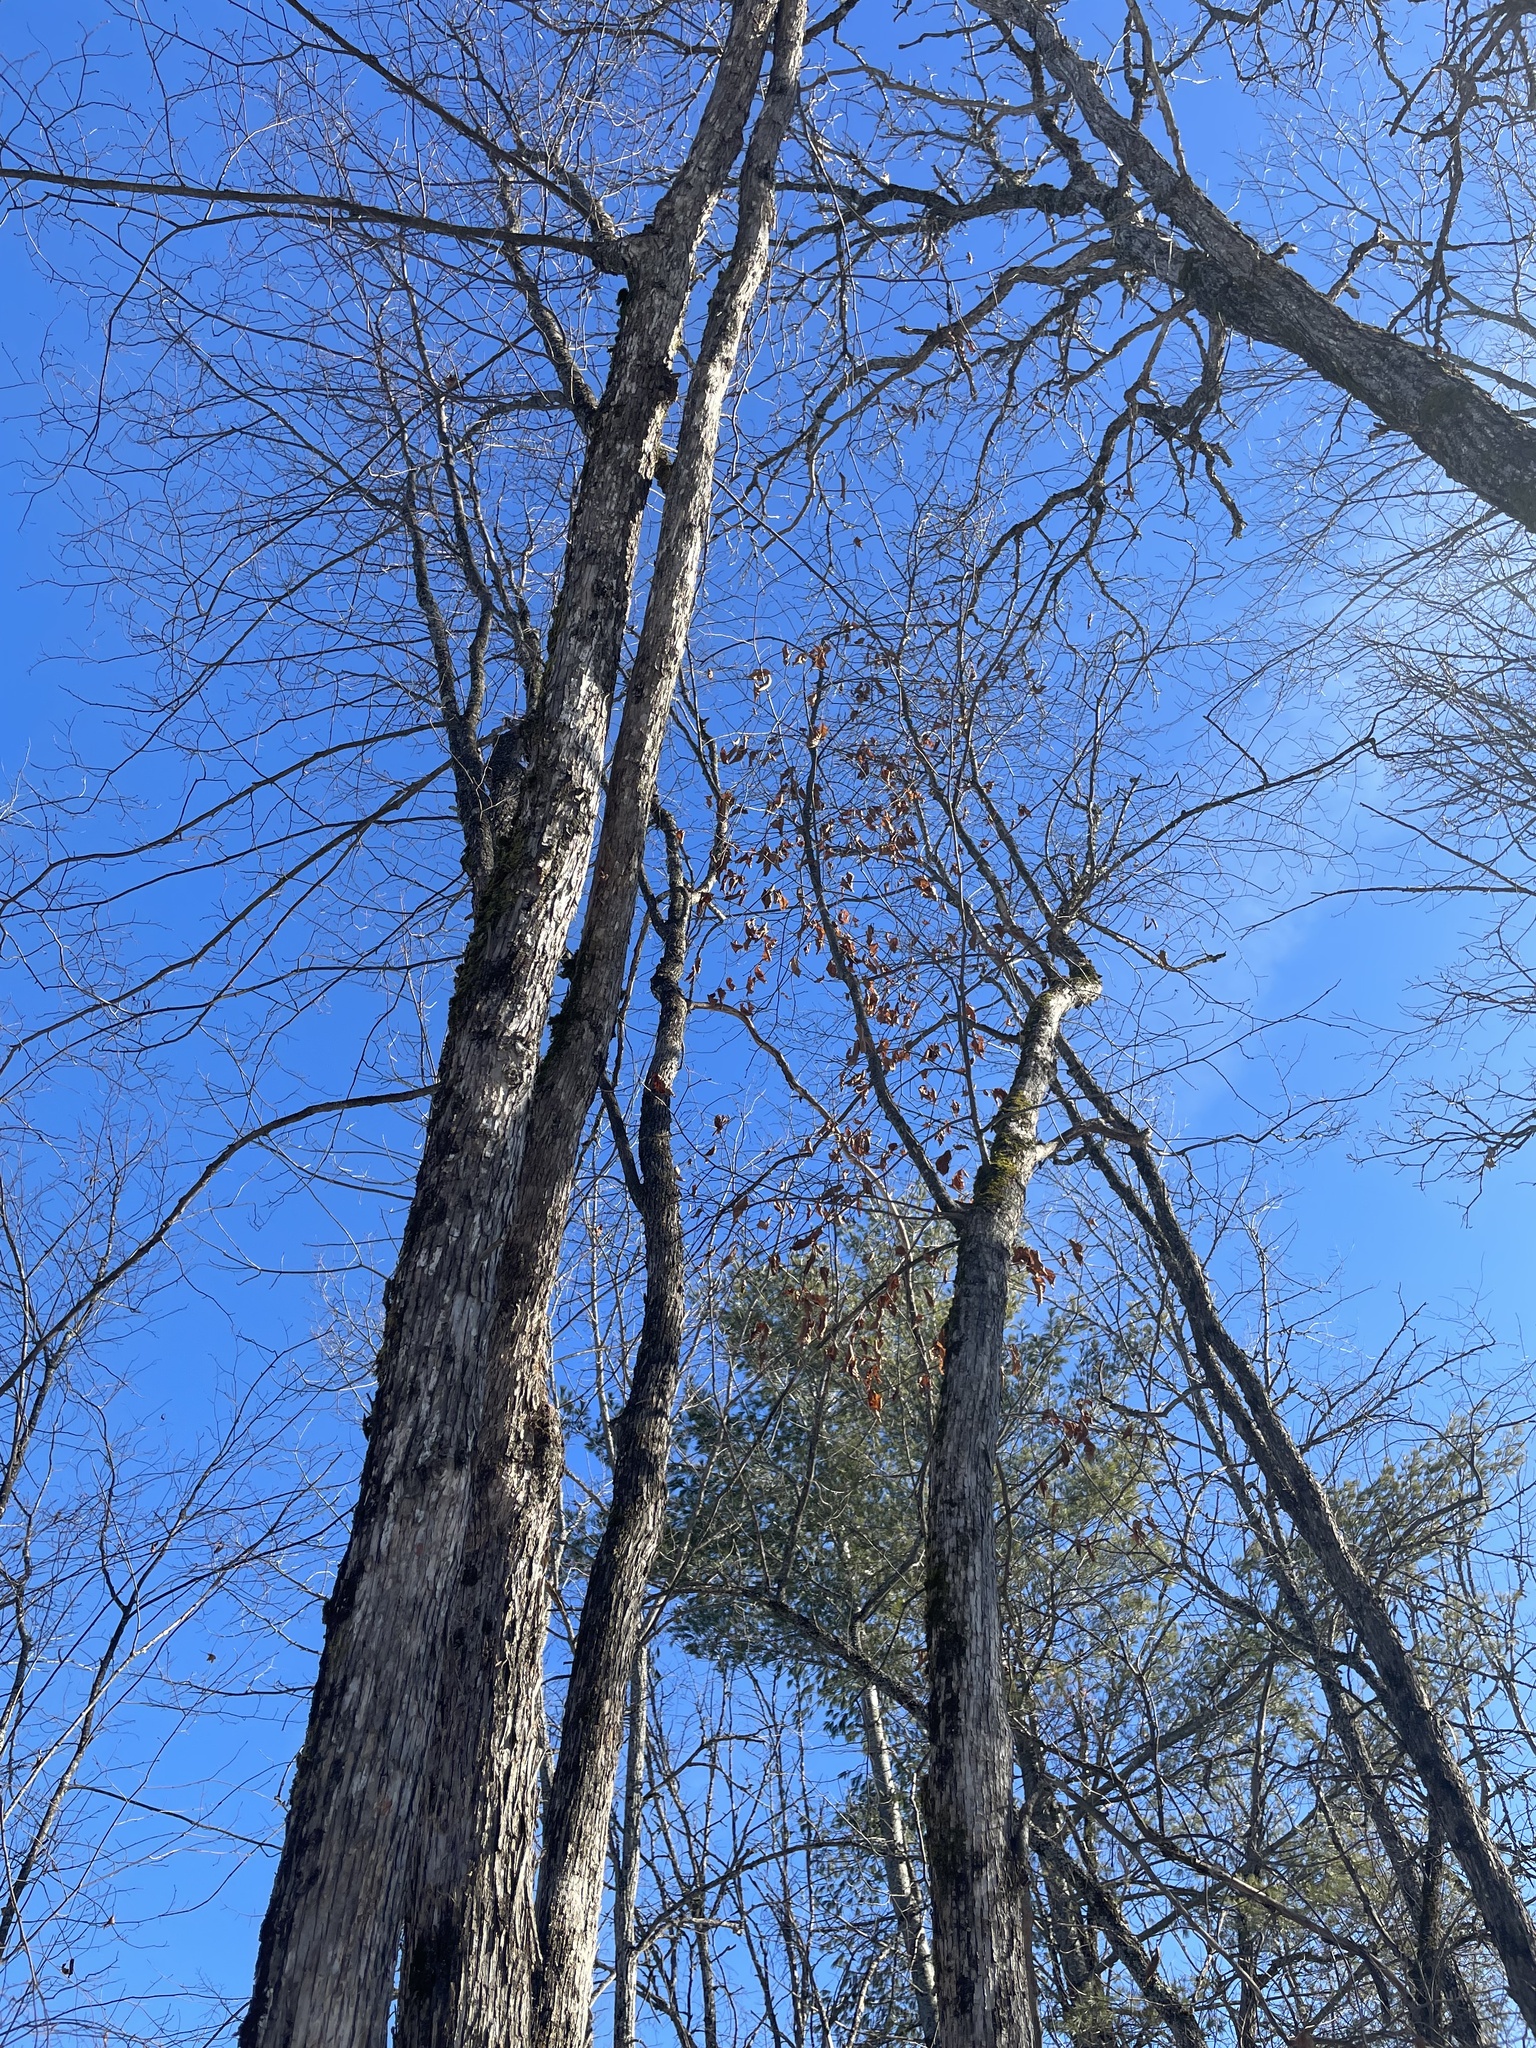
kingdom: Plantae
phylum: Tracheophyta
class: Magnoliopsida
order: Fagales
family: Betulaceae
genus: Ostrya
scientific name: Ostrya virginiana
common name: Ironwood
